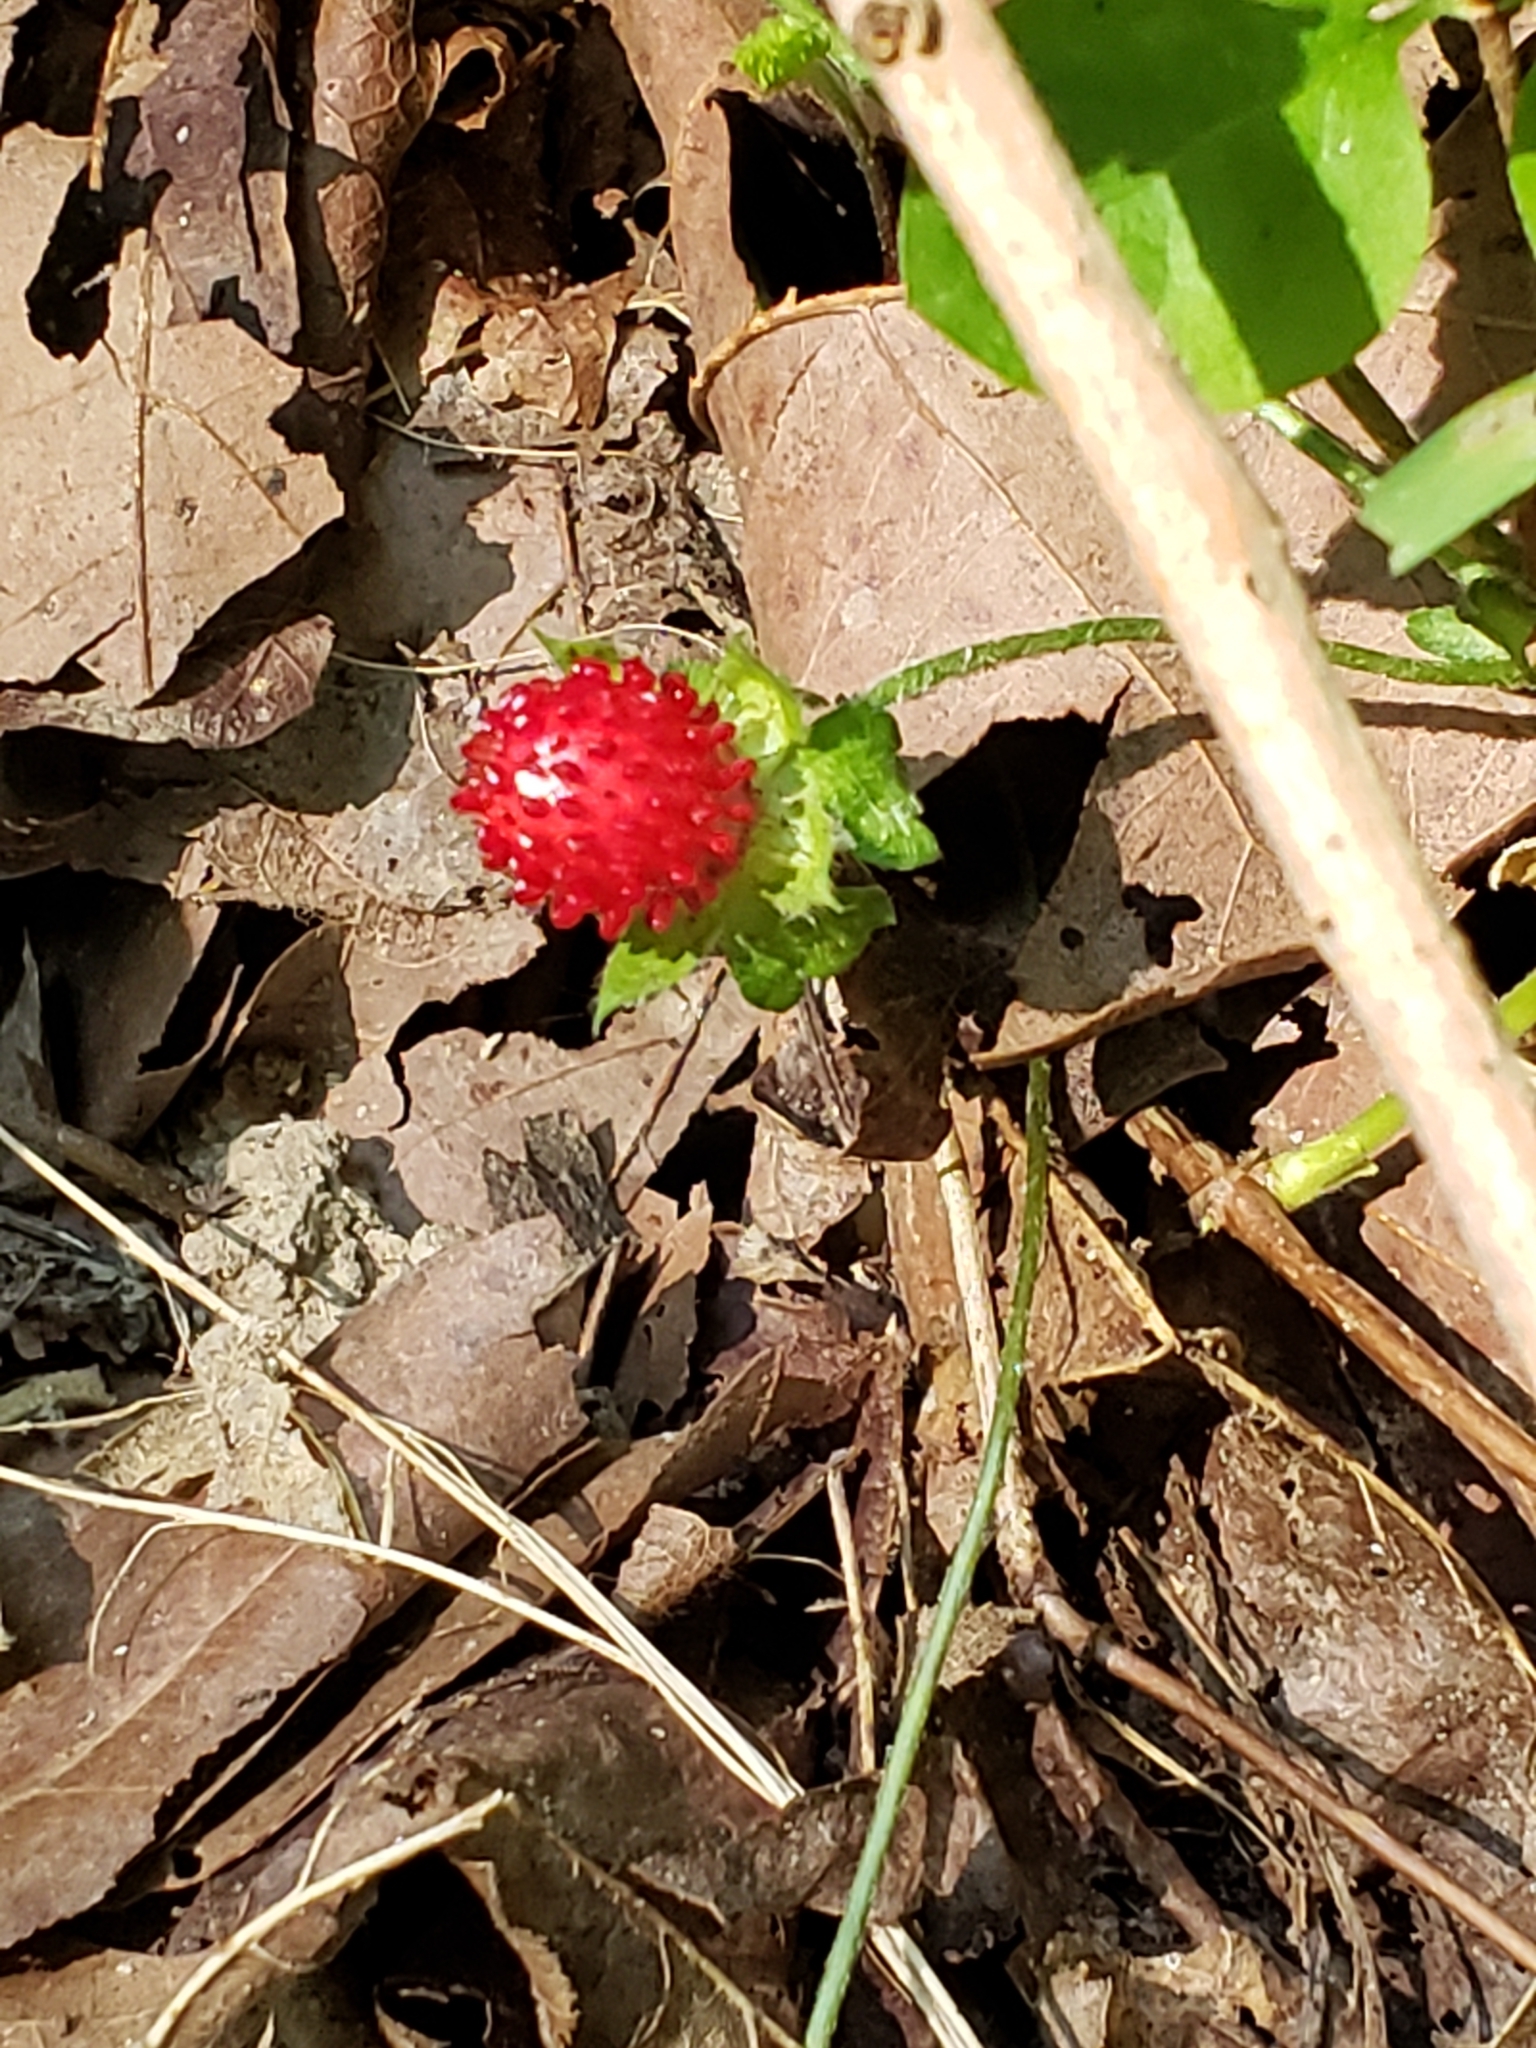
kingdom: Plantae
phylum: Tracheophyta
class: Magnoliopsida
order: Rosales
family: Rosaceae
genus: Potentilla
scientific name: Potentilla indica
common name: Yellow-flowered strawberry
